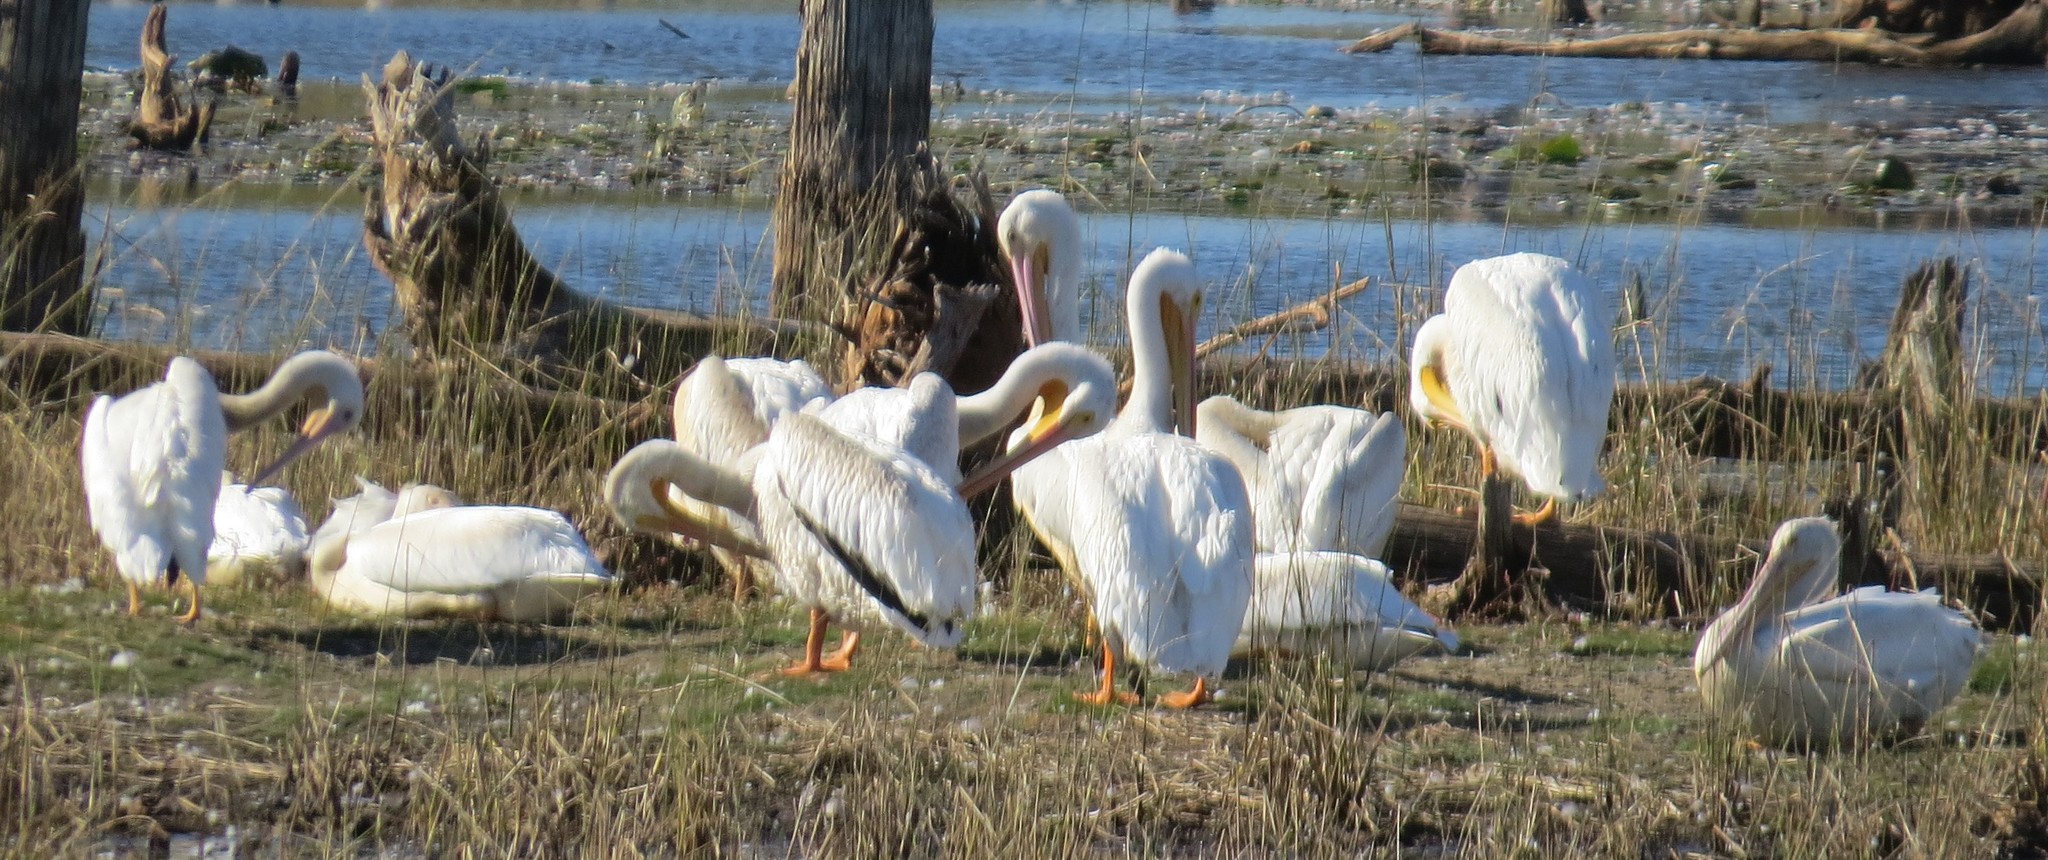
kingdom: Animalia
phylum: Chordata
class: Aves
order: Pelecaniformes
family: Pelecanidae
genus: Pelecanus
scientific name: Pelecanus erythrorhynchos
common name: American white pelican
